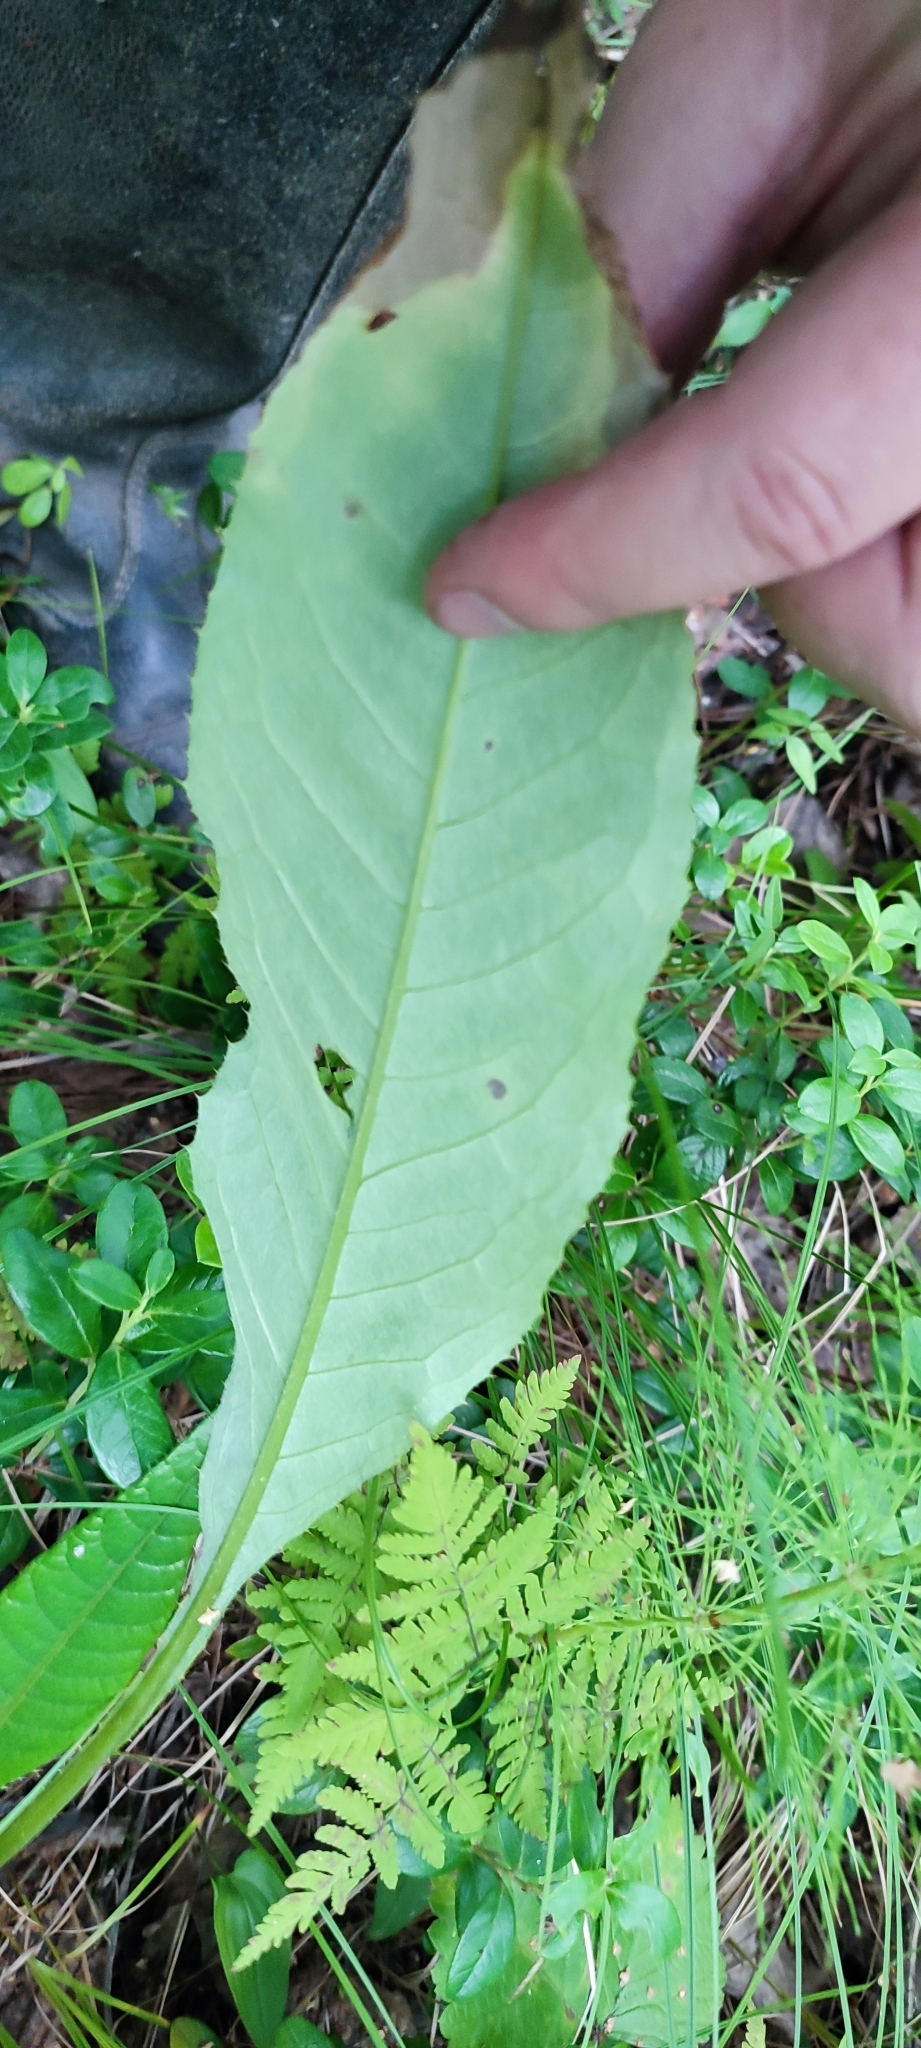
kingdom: Plantae
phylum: Tracheophyta
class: Magnoliopsida
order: Asterales
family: Asteraceae
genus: Cirsium
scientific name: Cirsium heterophyllum
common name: Melancholy thistle
